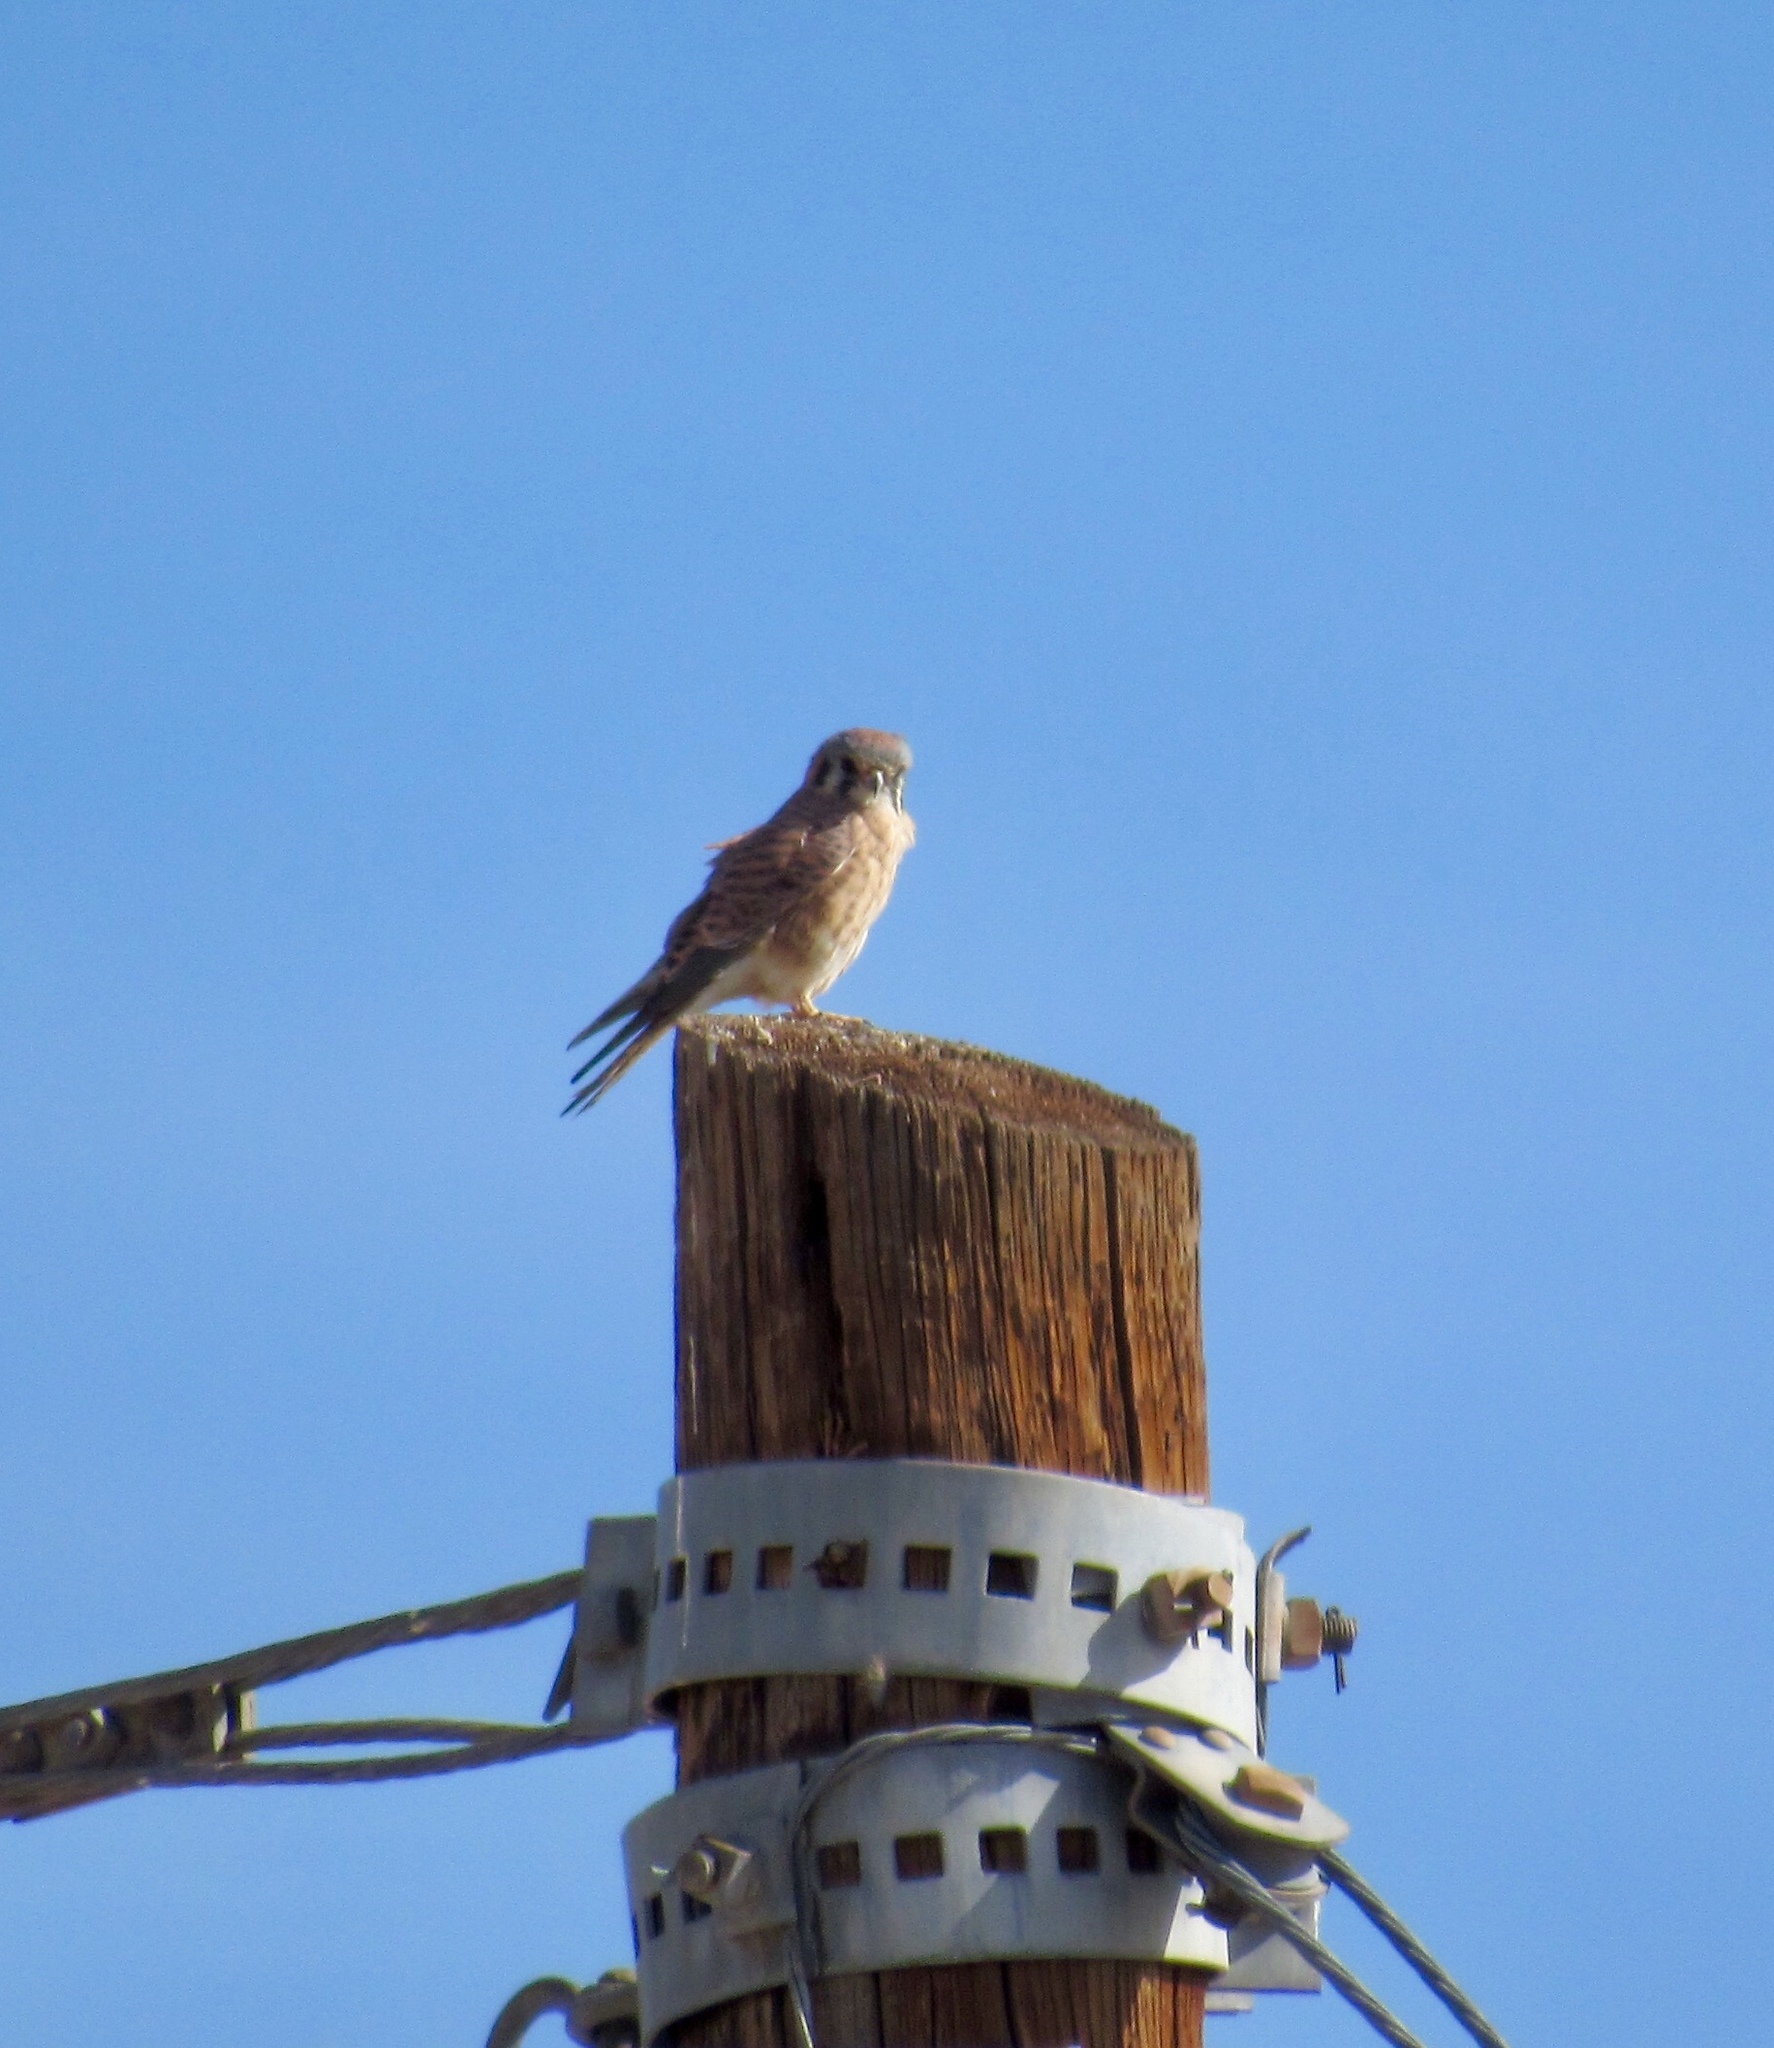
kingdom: Animalia
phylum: Chordata
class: Aves
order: Falconiformes
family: Falconidae
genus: Falco
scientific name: Falco sparverius
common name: American kestrel
